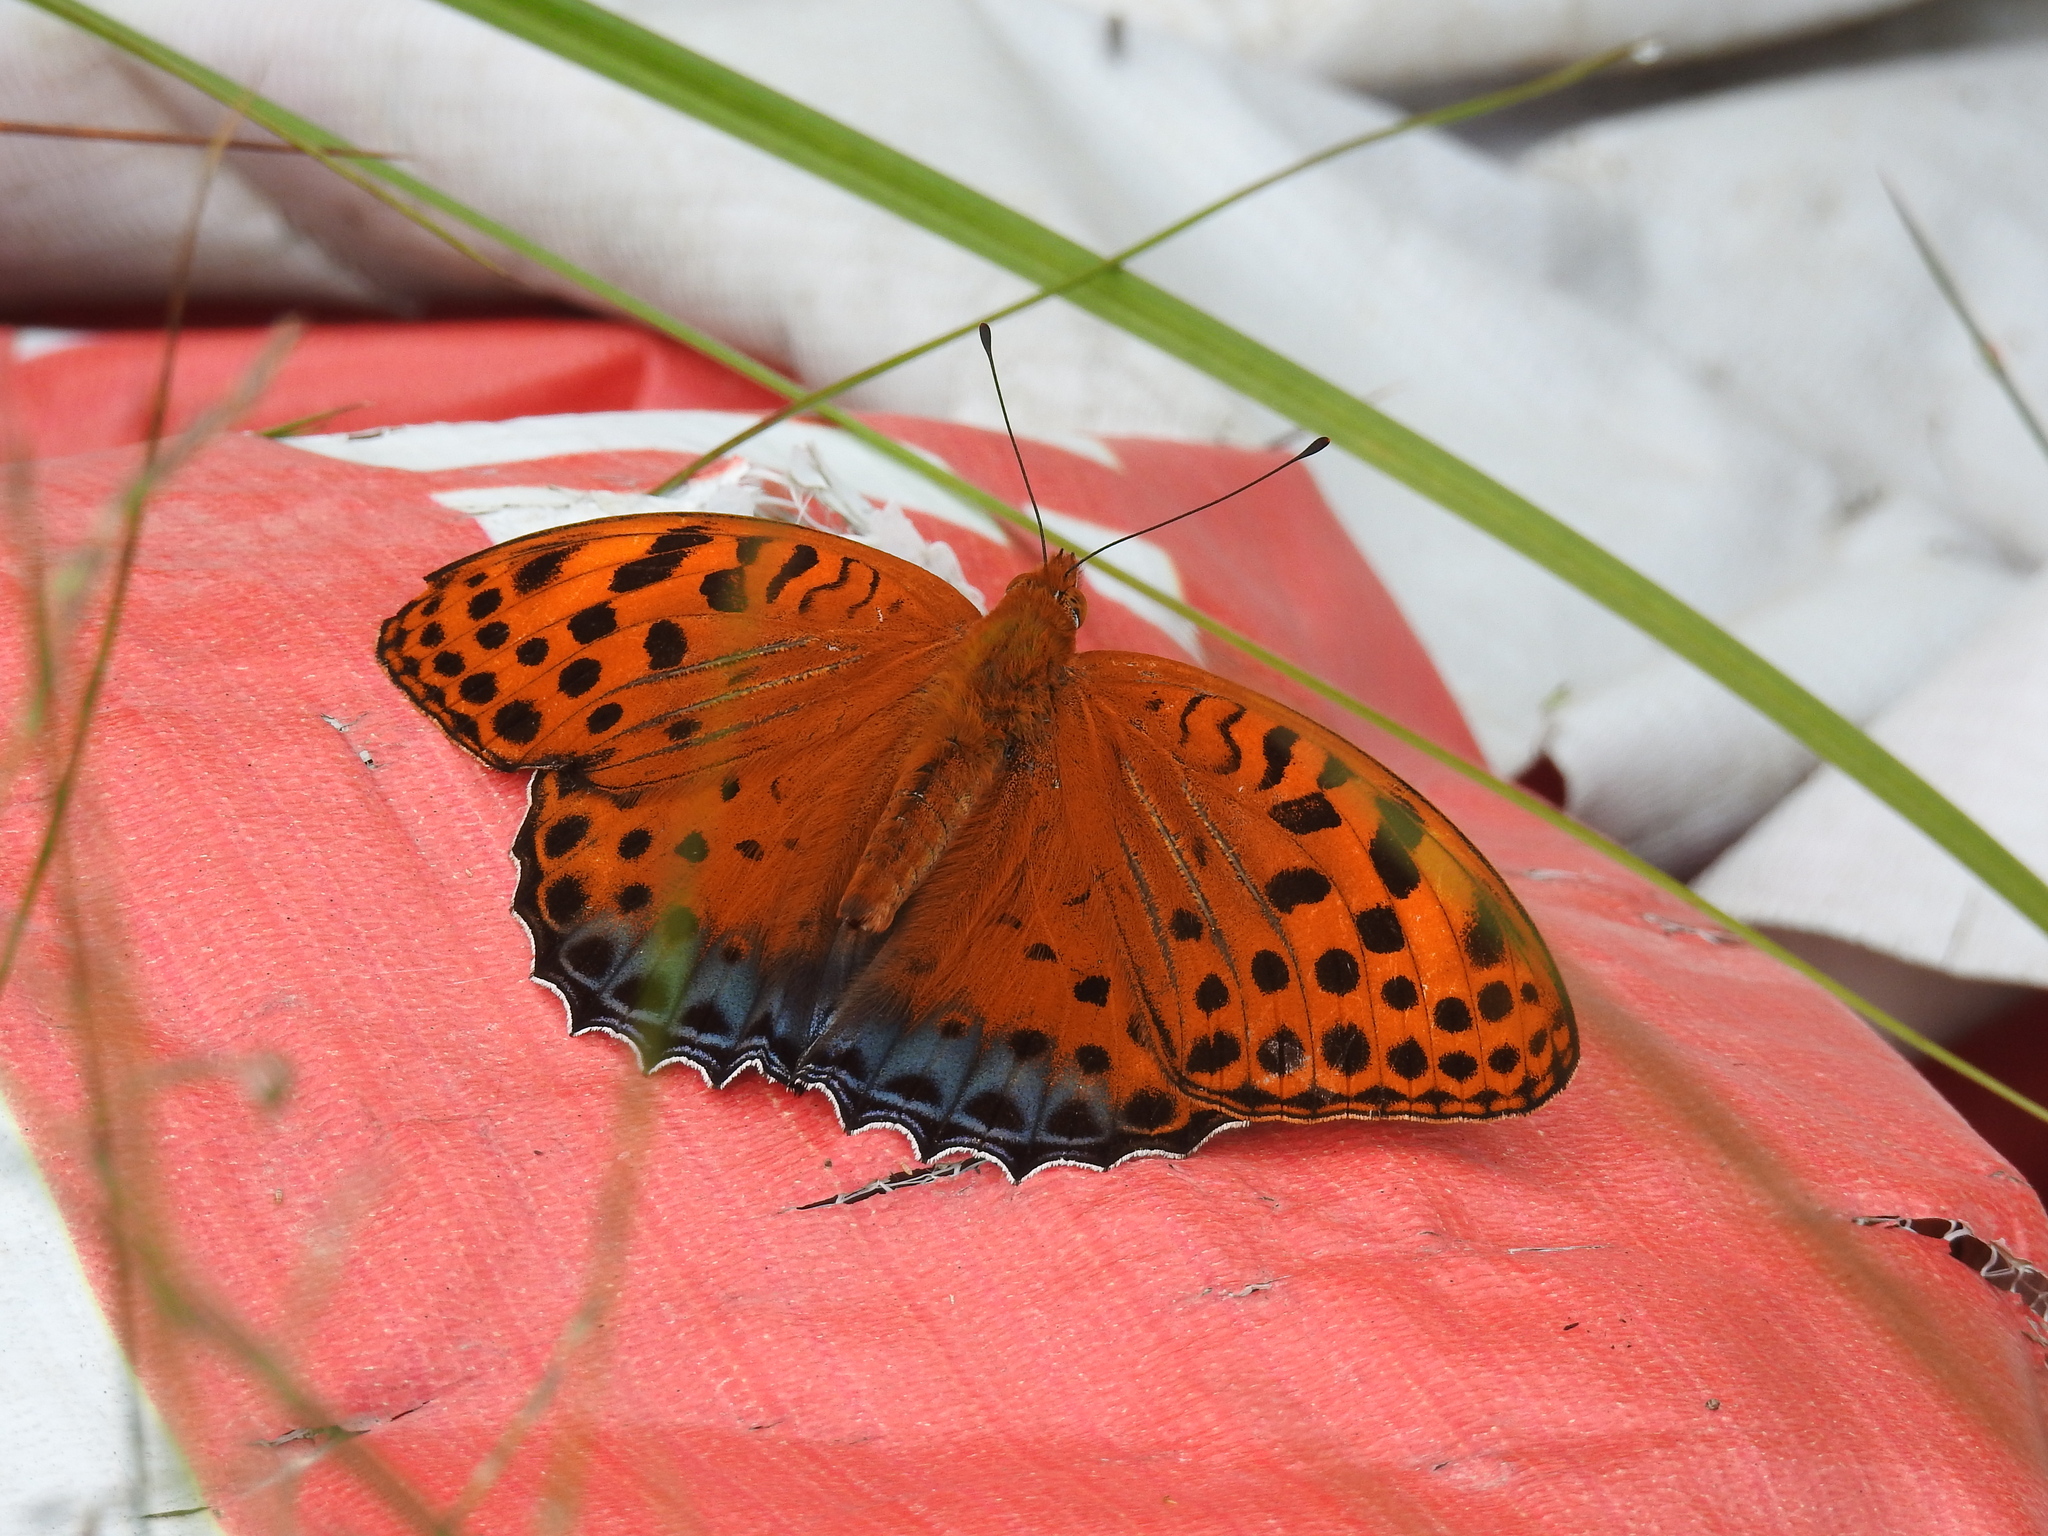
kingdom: Animalia
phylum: Arthropoda
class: Insecta
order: Lepidoptera
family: Nymphalidae
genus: Childrena
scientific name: Childrena childreni
